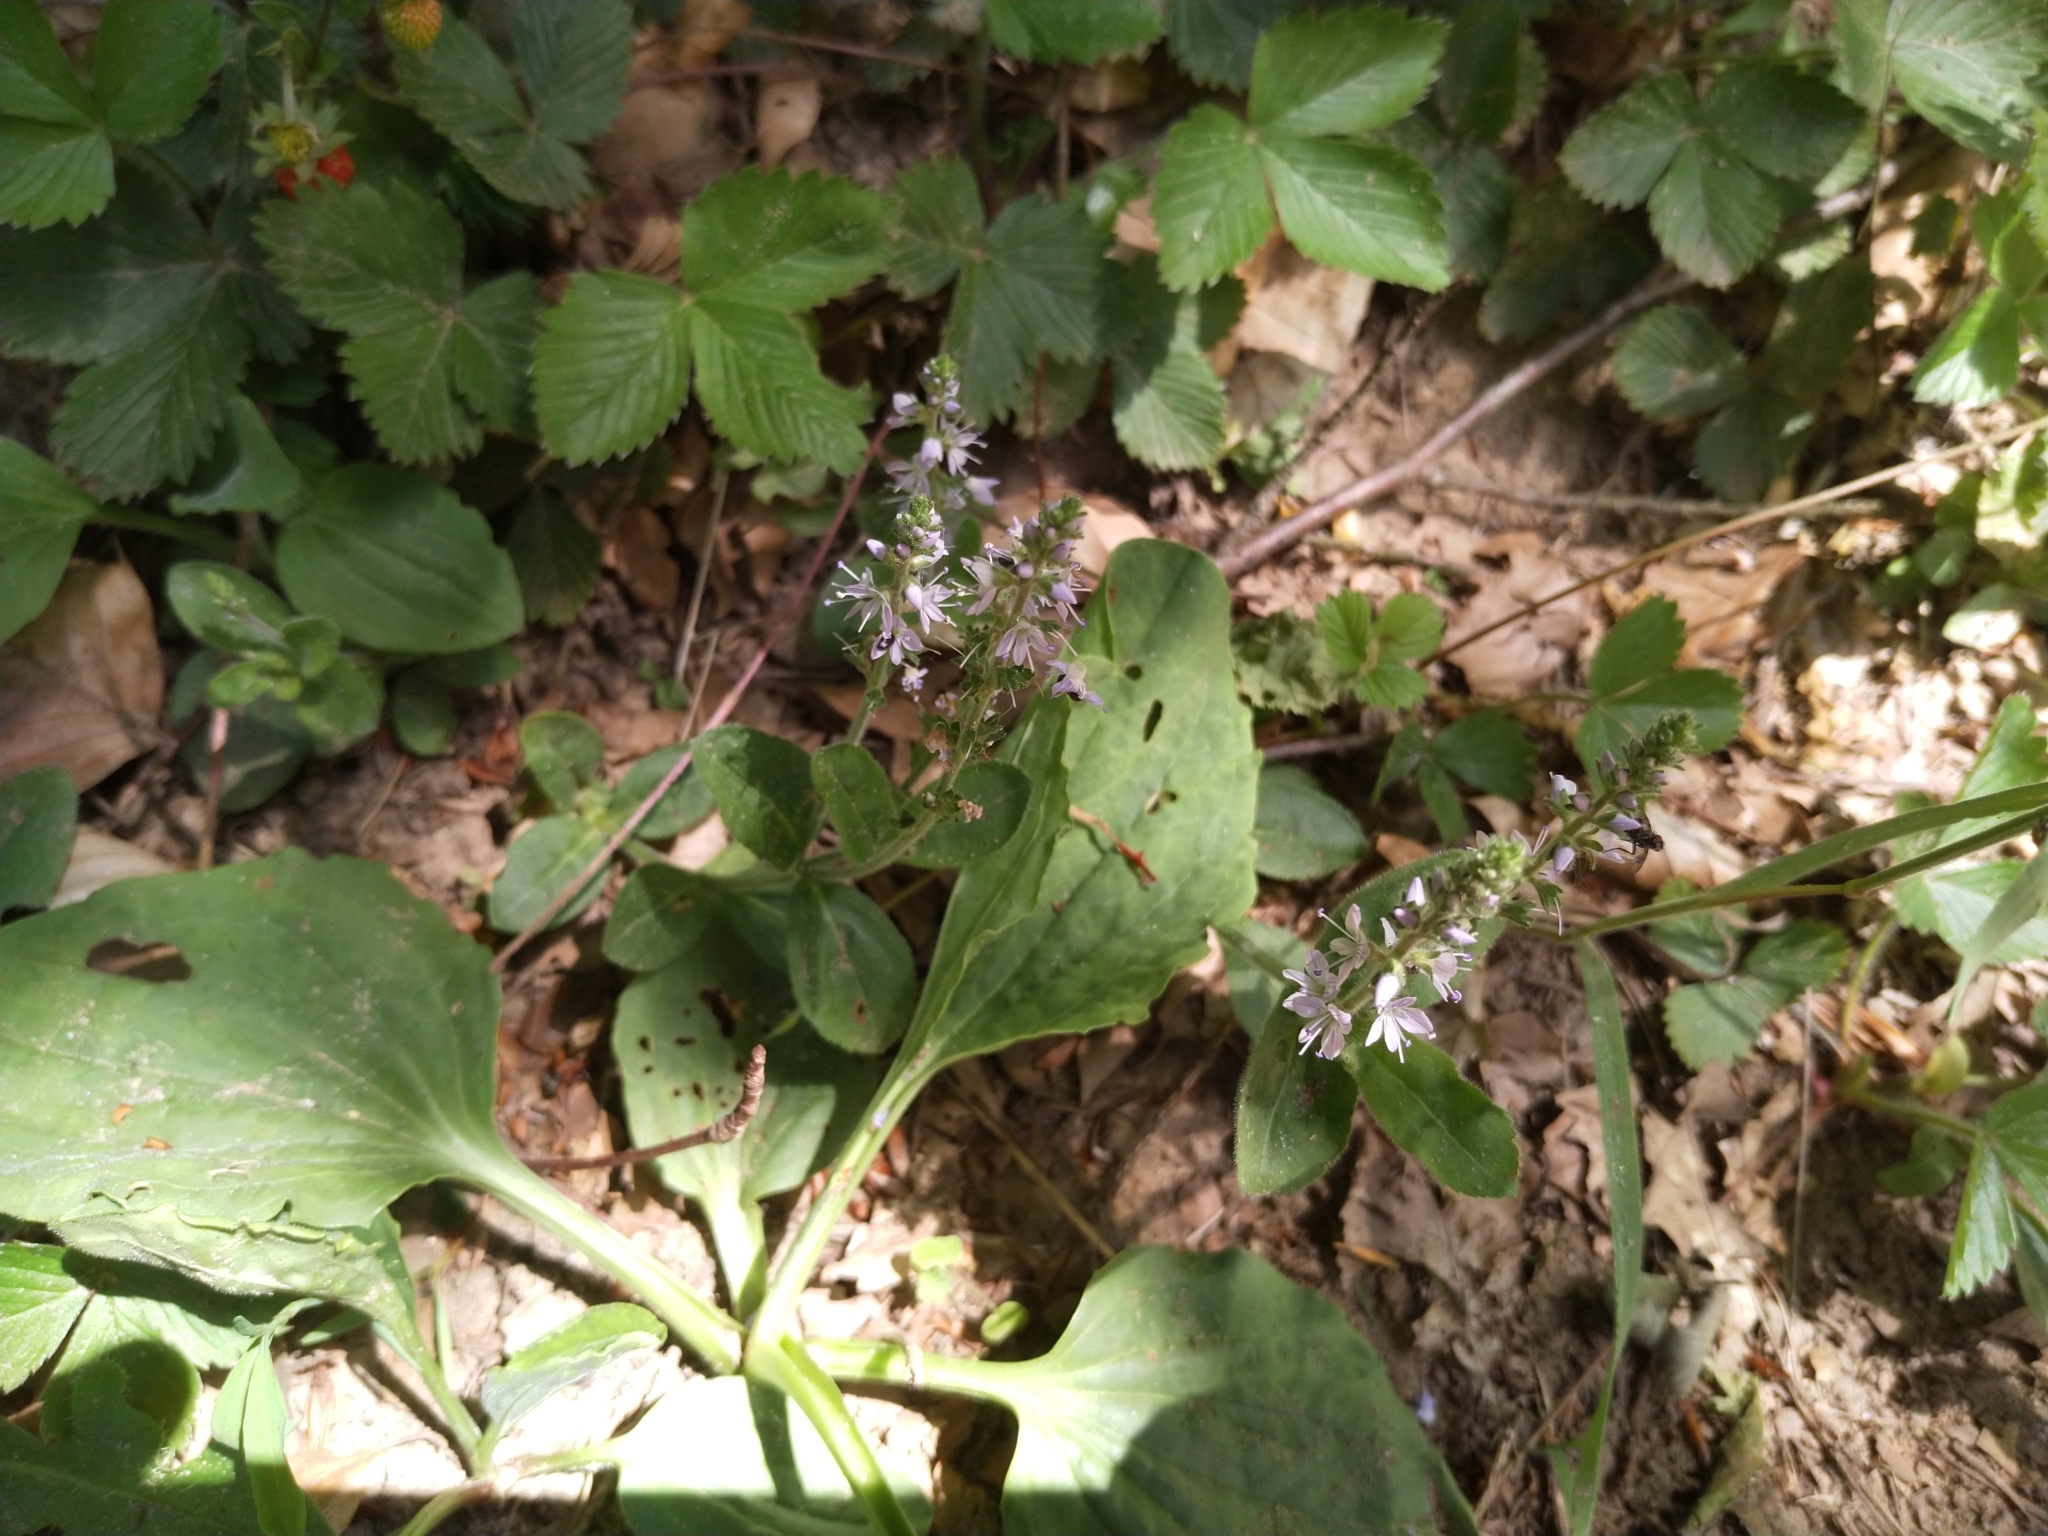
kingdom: Plantae
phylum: Tracheophyta
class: Magnoliopsida
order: Lamiales
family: Plantaginaceae
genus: Veronica
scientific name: Veronica officinalis
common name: Common speedwell
